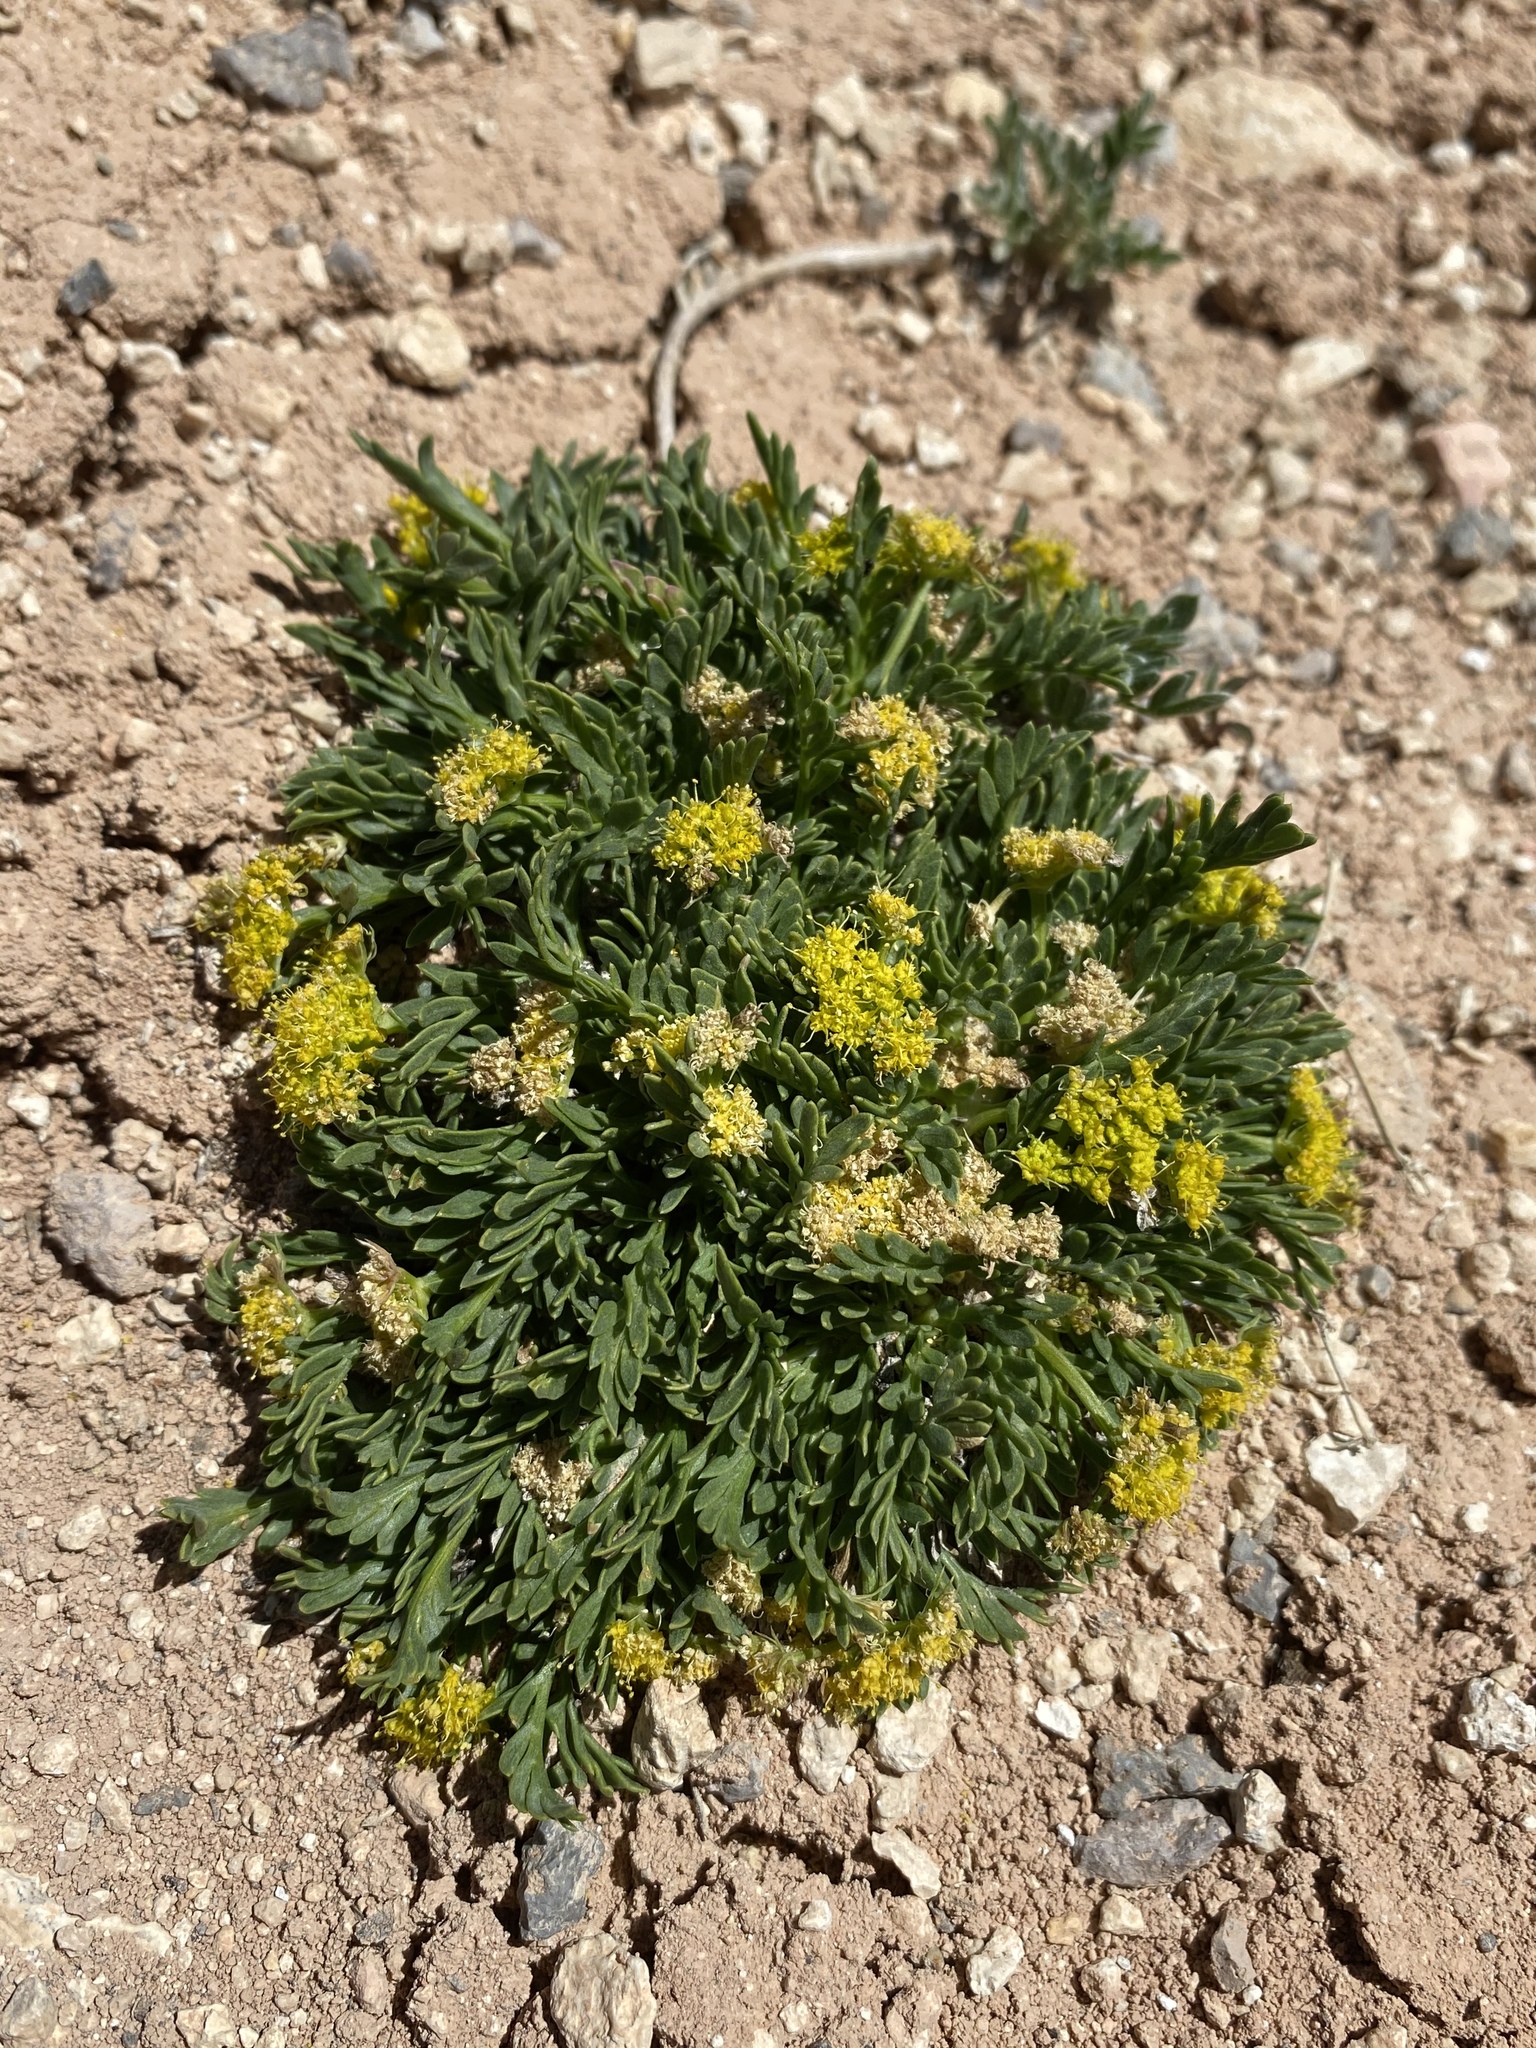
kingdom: Plantae
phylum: Tracheophyta
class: Magnoliopsida
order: Apiales
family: Apiaceae
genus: Lomatium
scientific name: Lomatium minimum
